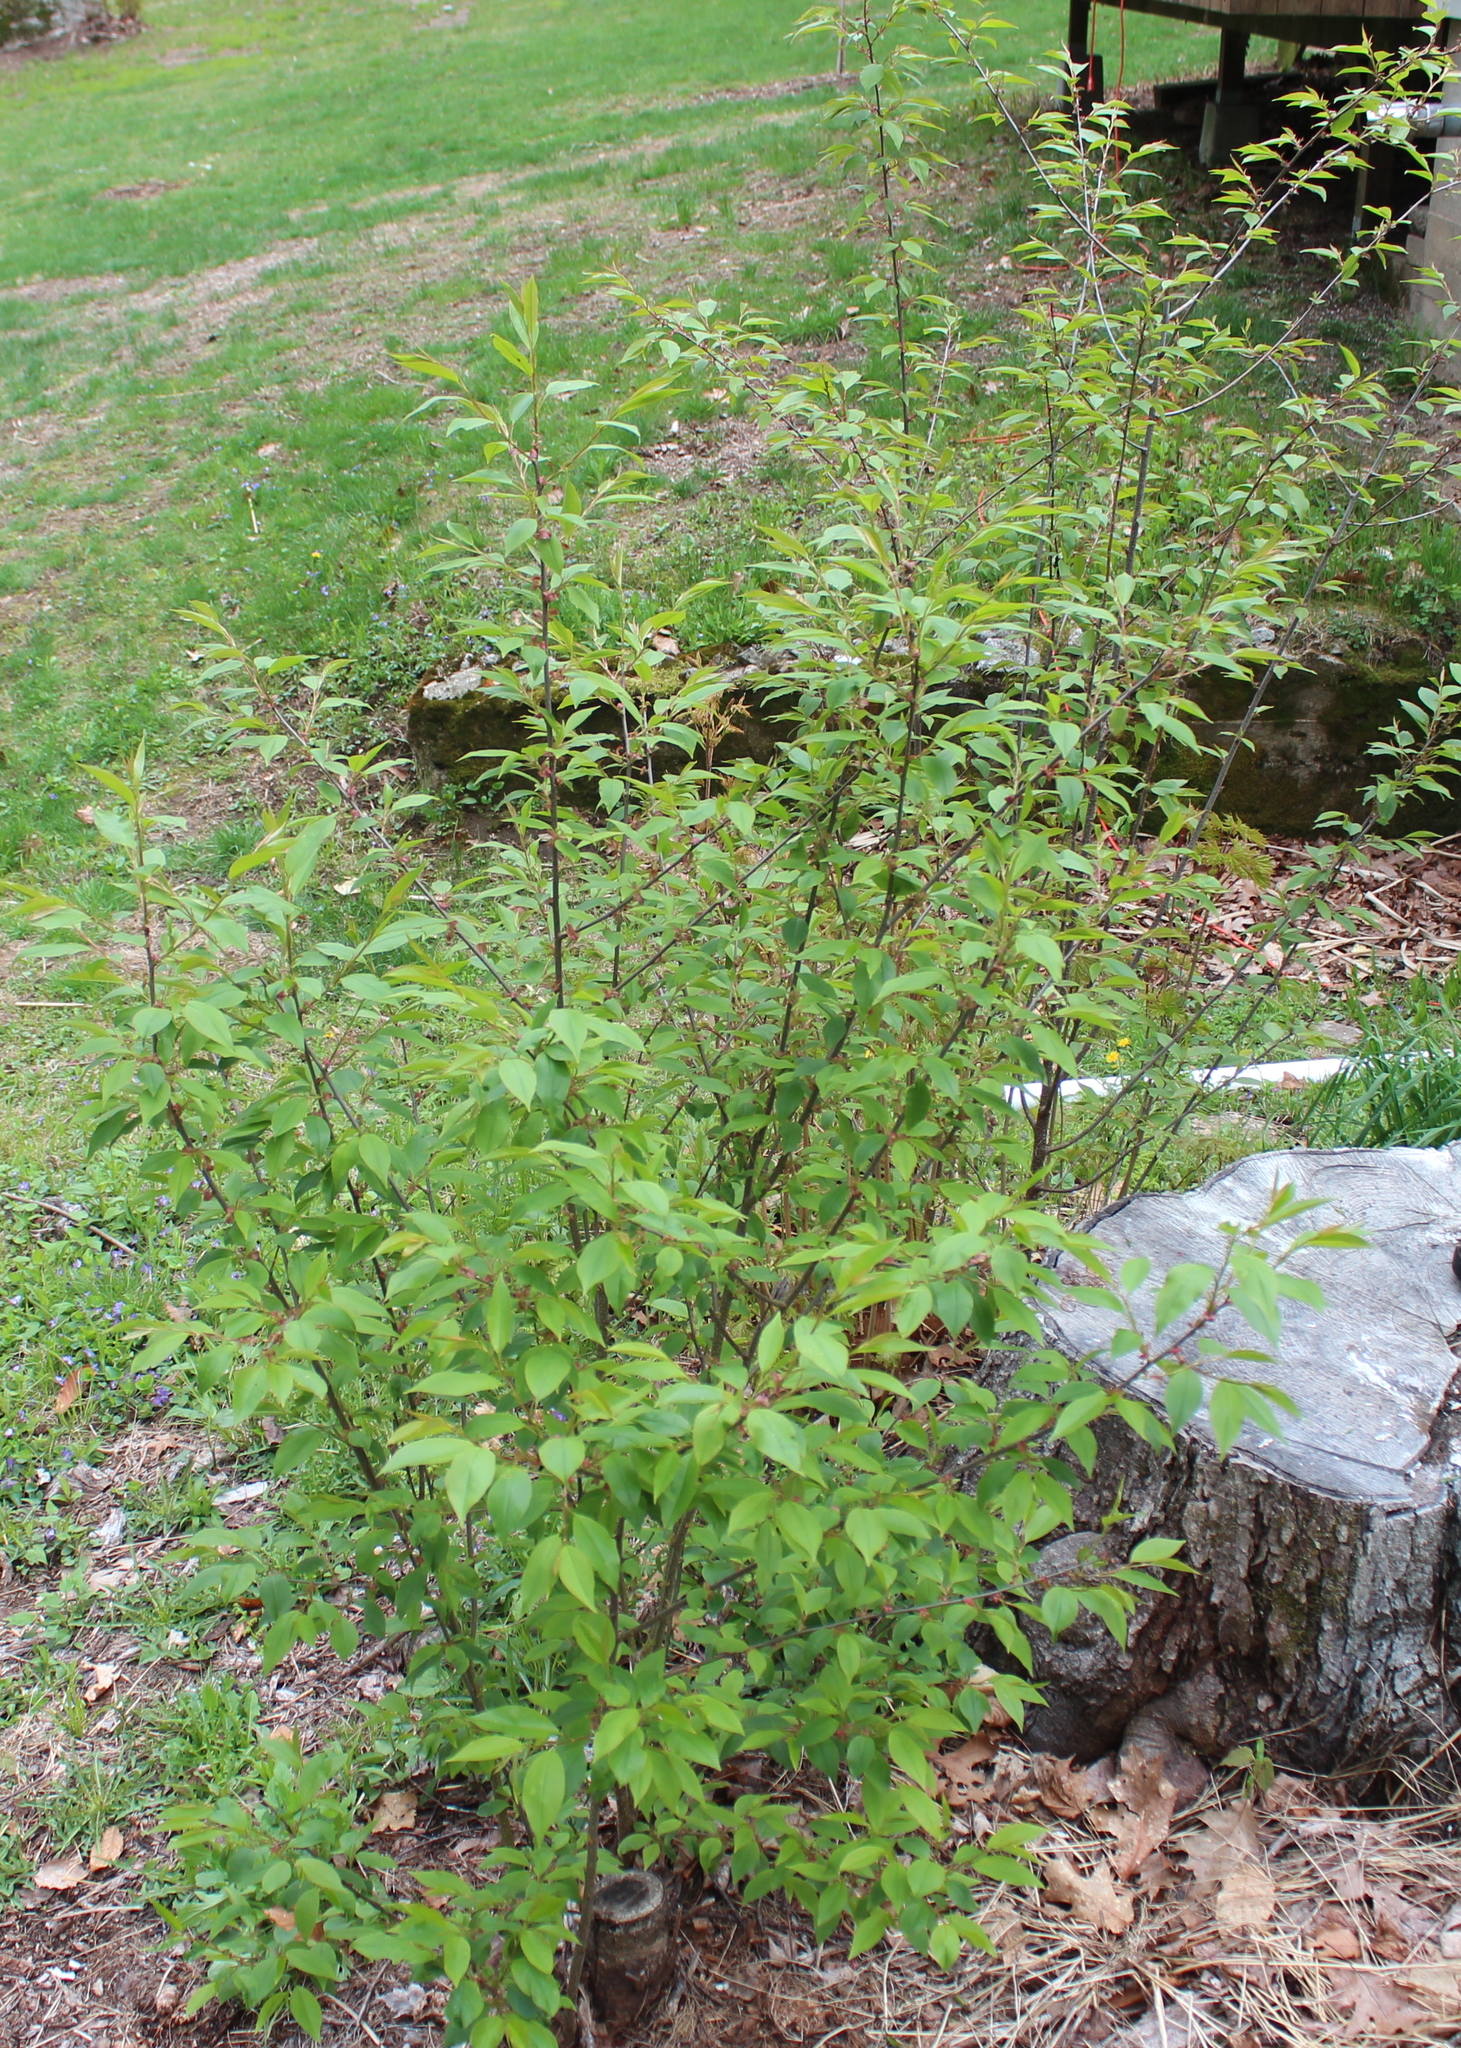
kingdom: Plantae
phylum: Tracheophyta
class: Magnoliopsida
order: Rosales
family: Rosaceae
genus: Prunus
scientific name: Prunus serotina
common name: Black cherry
